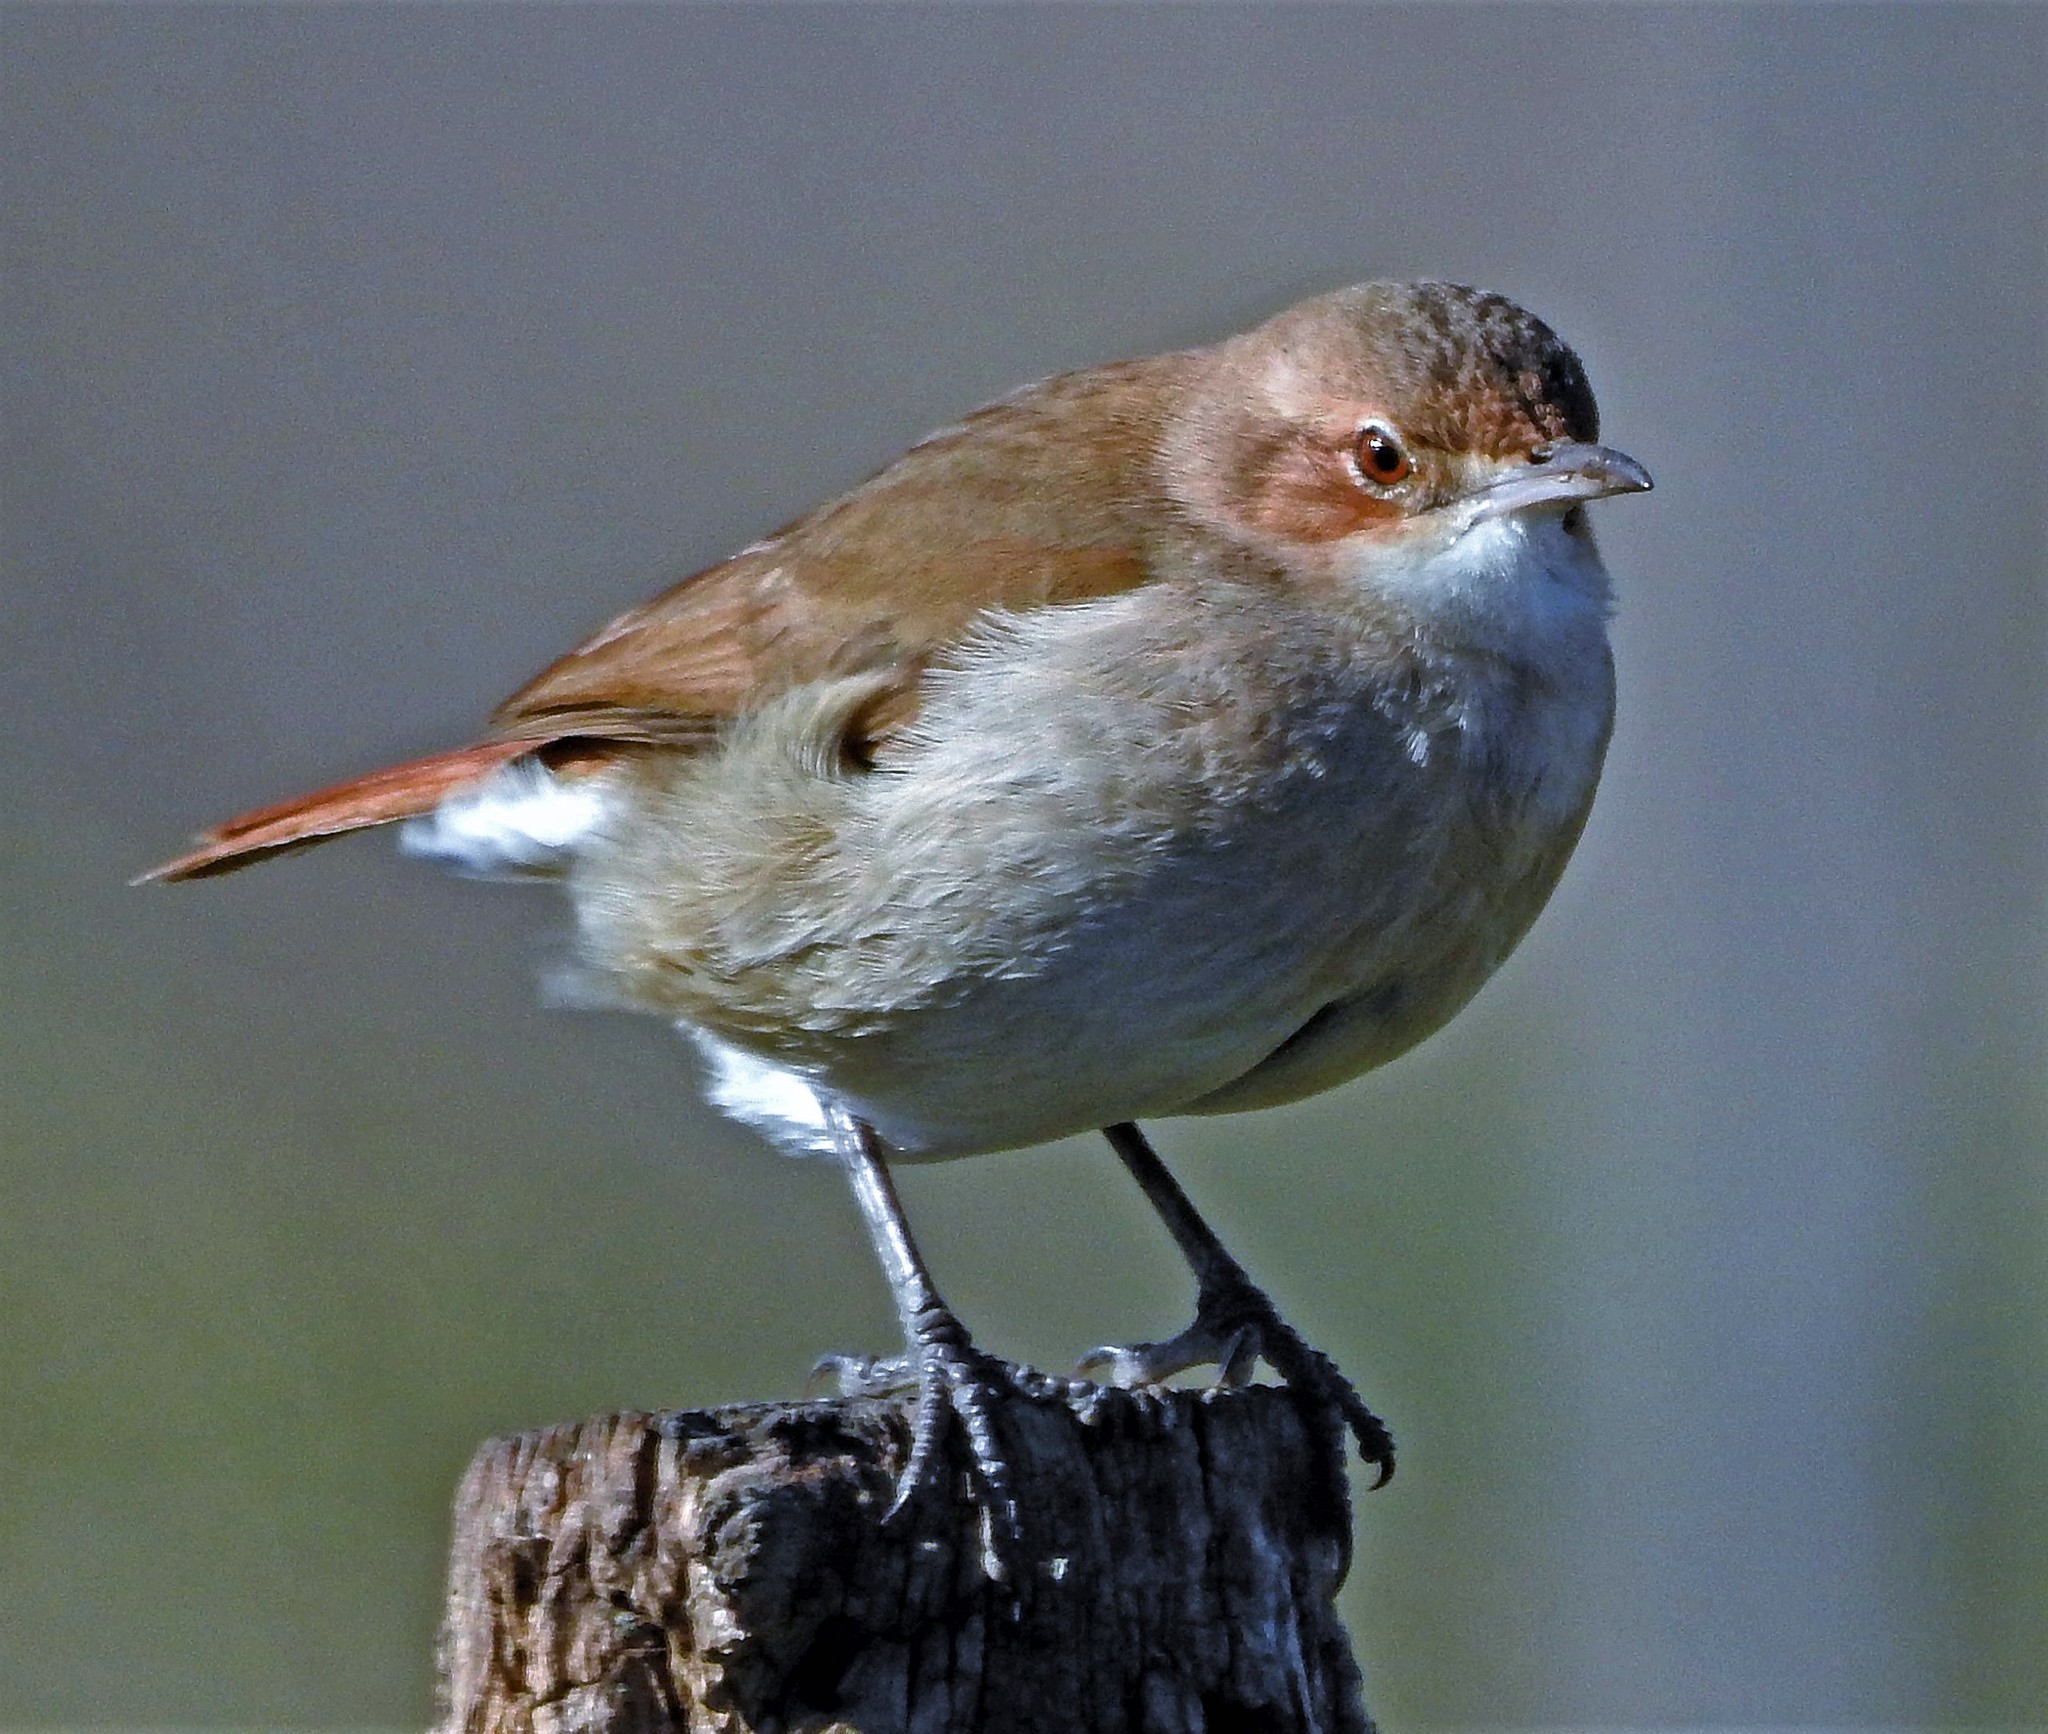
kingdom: Animalia
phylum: Chordata
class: Aves
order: Passeriformes
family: Furnariidae
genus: Furnarius
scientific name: Furnarius rufus
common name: Rufous hornero
